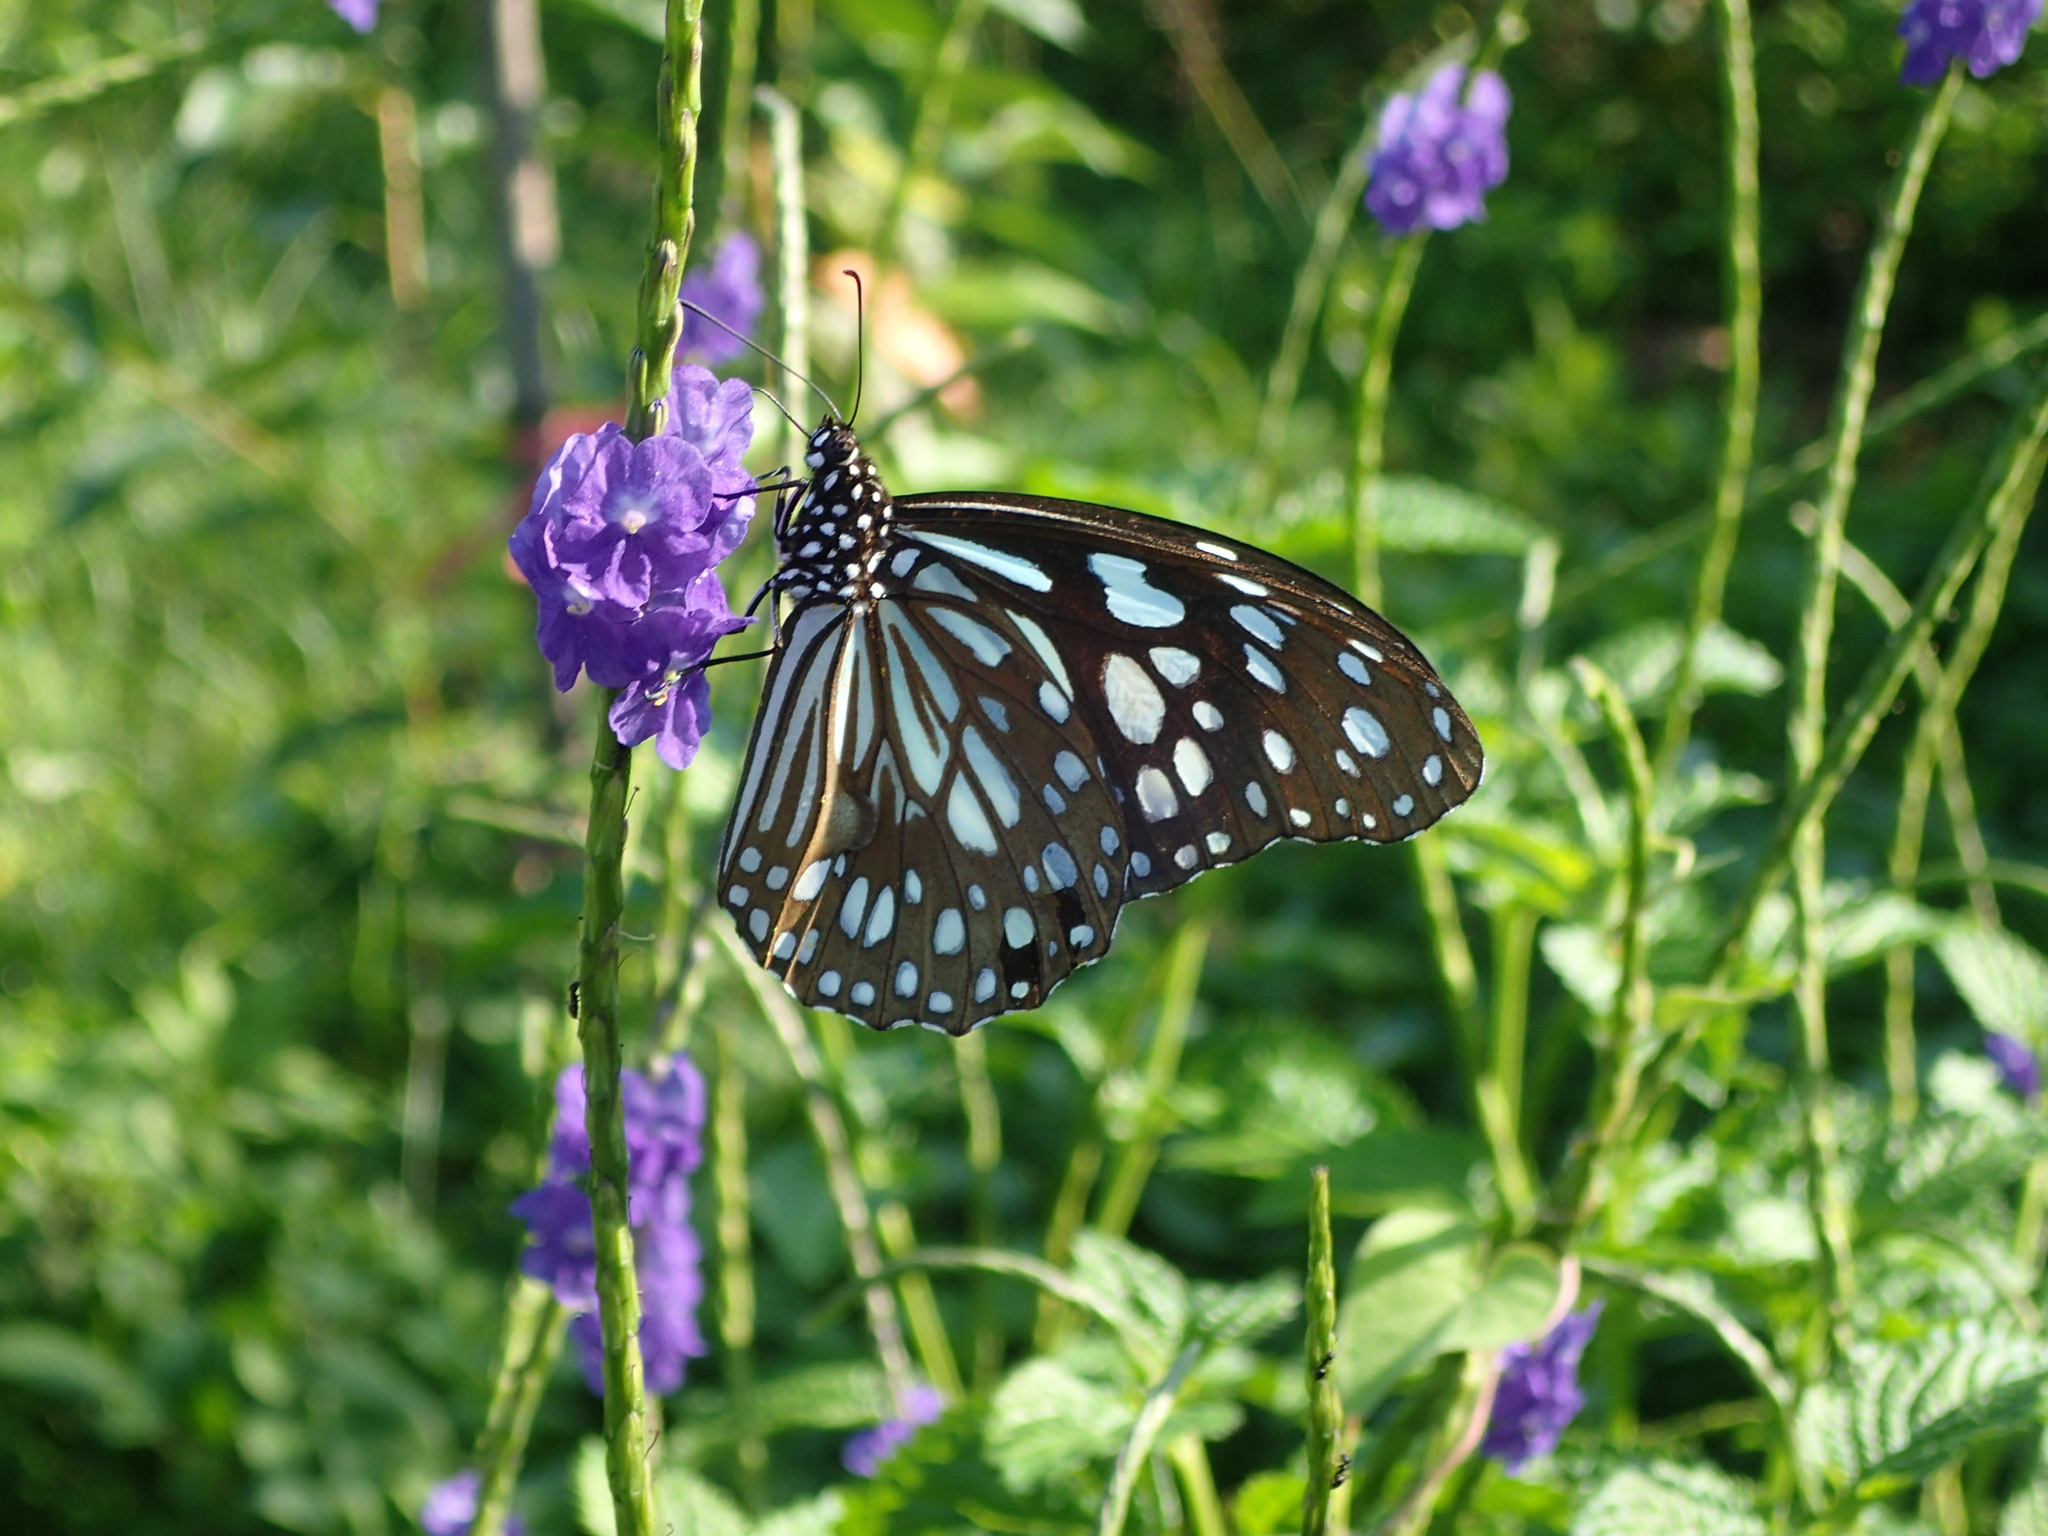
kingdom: Animalia
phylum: Arthropoda
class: Insecta
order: Lepidoptera
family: Nymphalidae
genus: Tirumala
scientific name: Tirumala limniace
